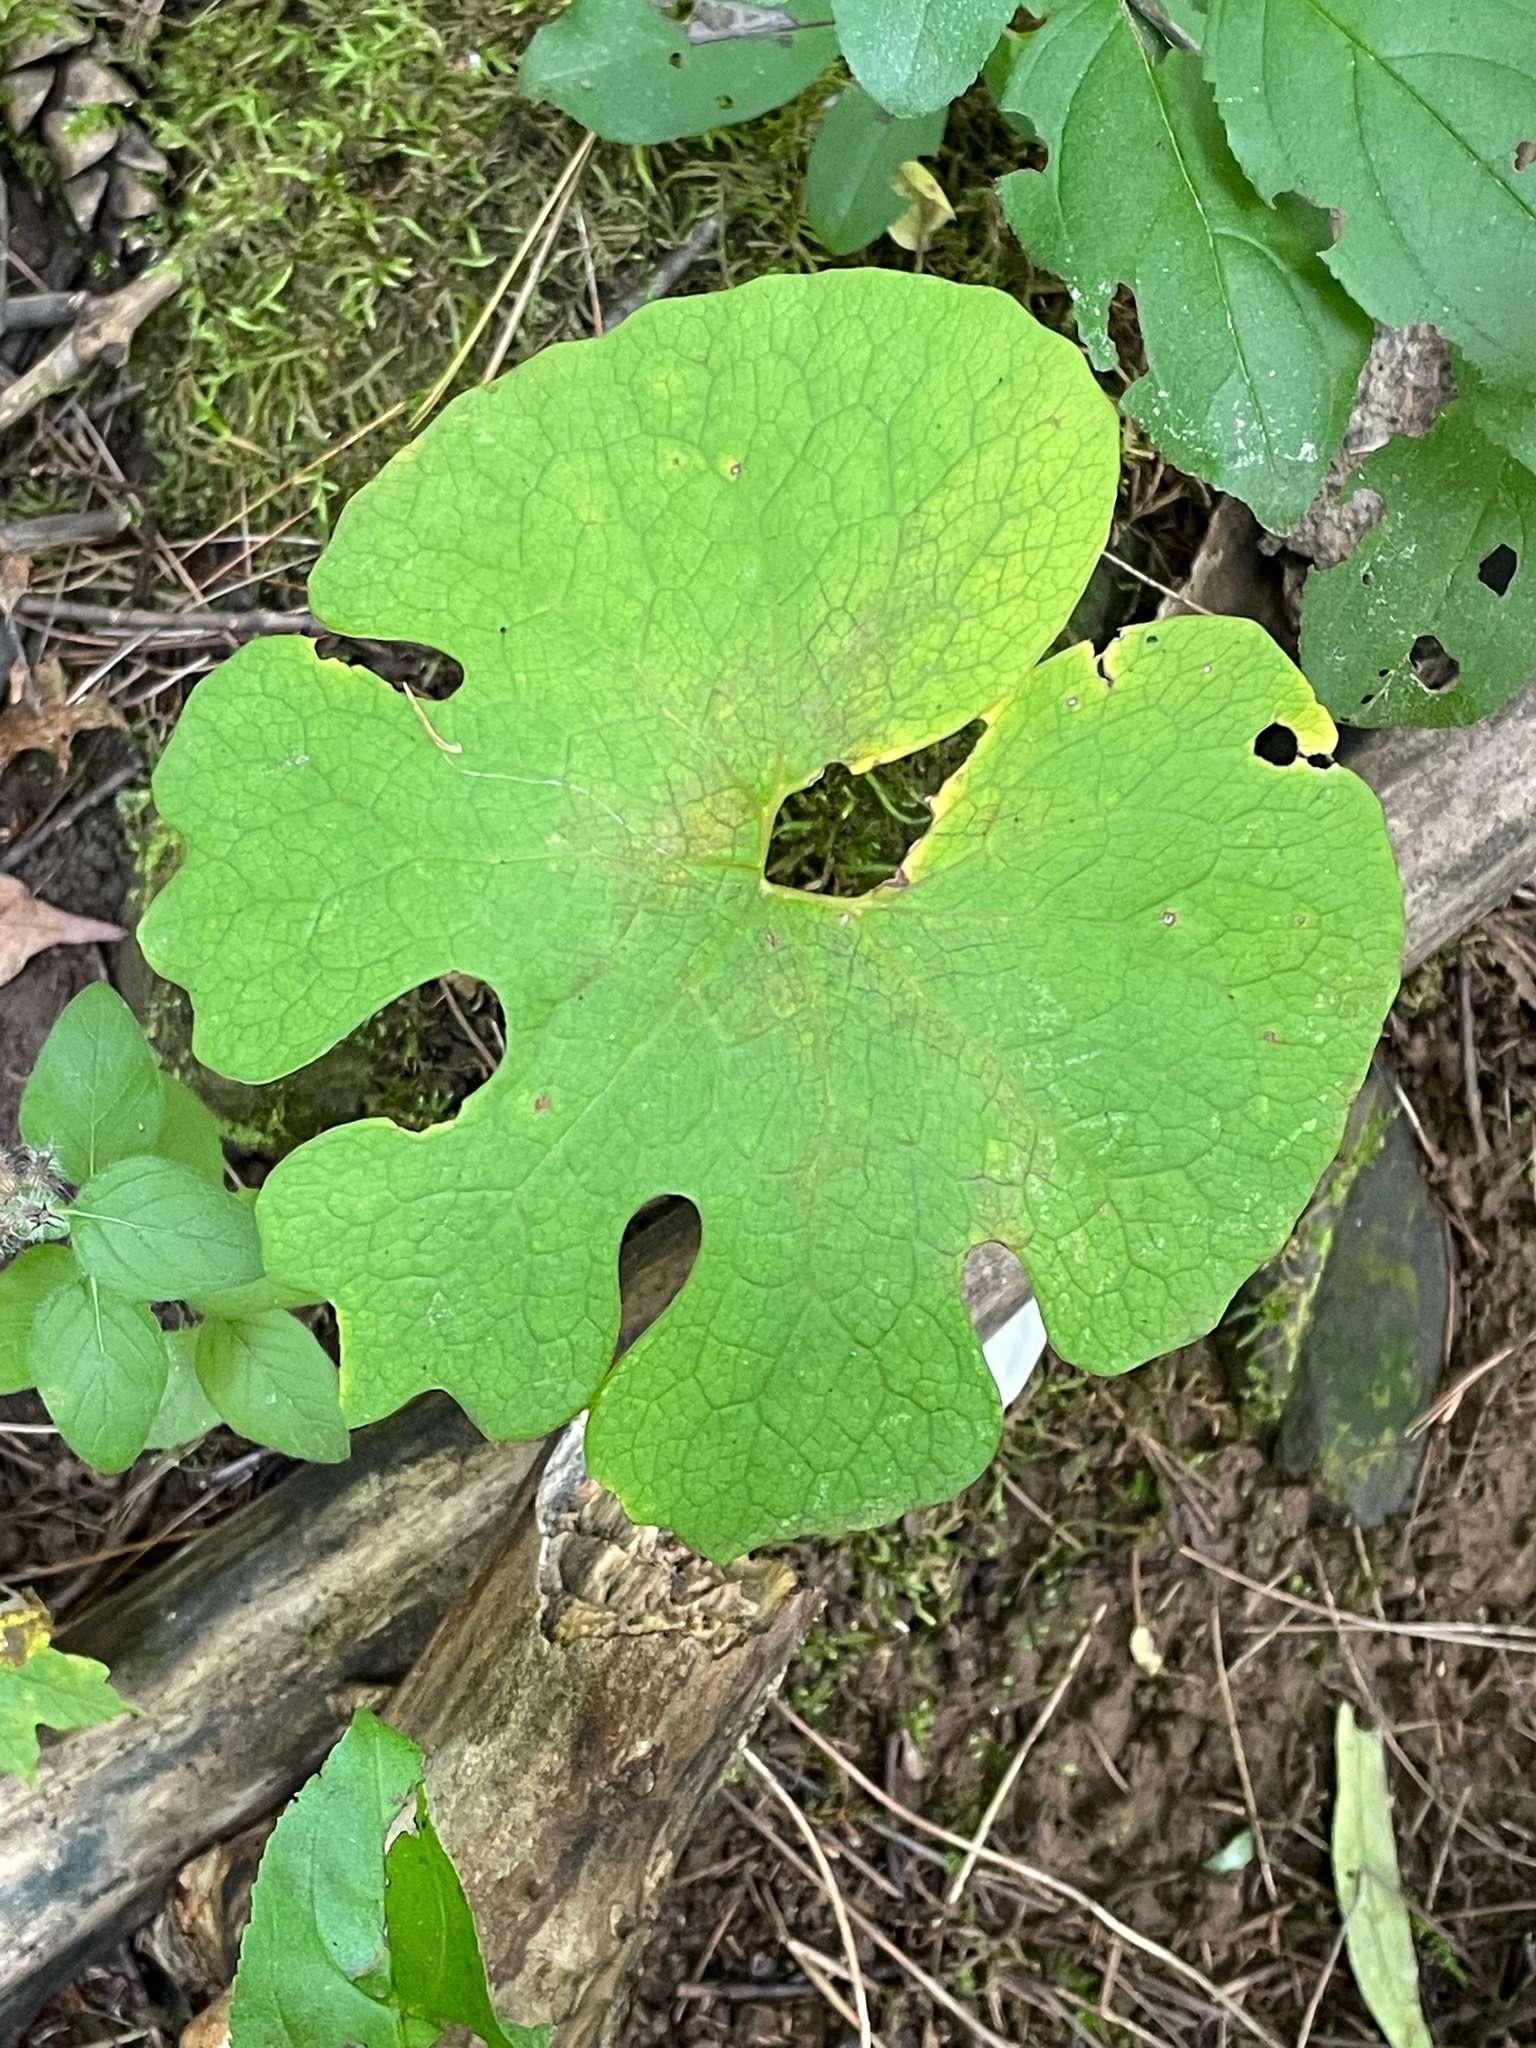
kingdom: Plantae
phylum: Tracheophyta
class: Magnoliopsida
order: Ranunculales
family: Papaveraceae
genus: Sanguinaria
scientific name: Sanguinaria canadensis
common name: Bloodroot
